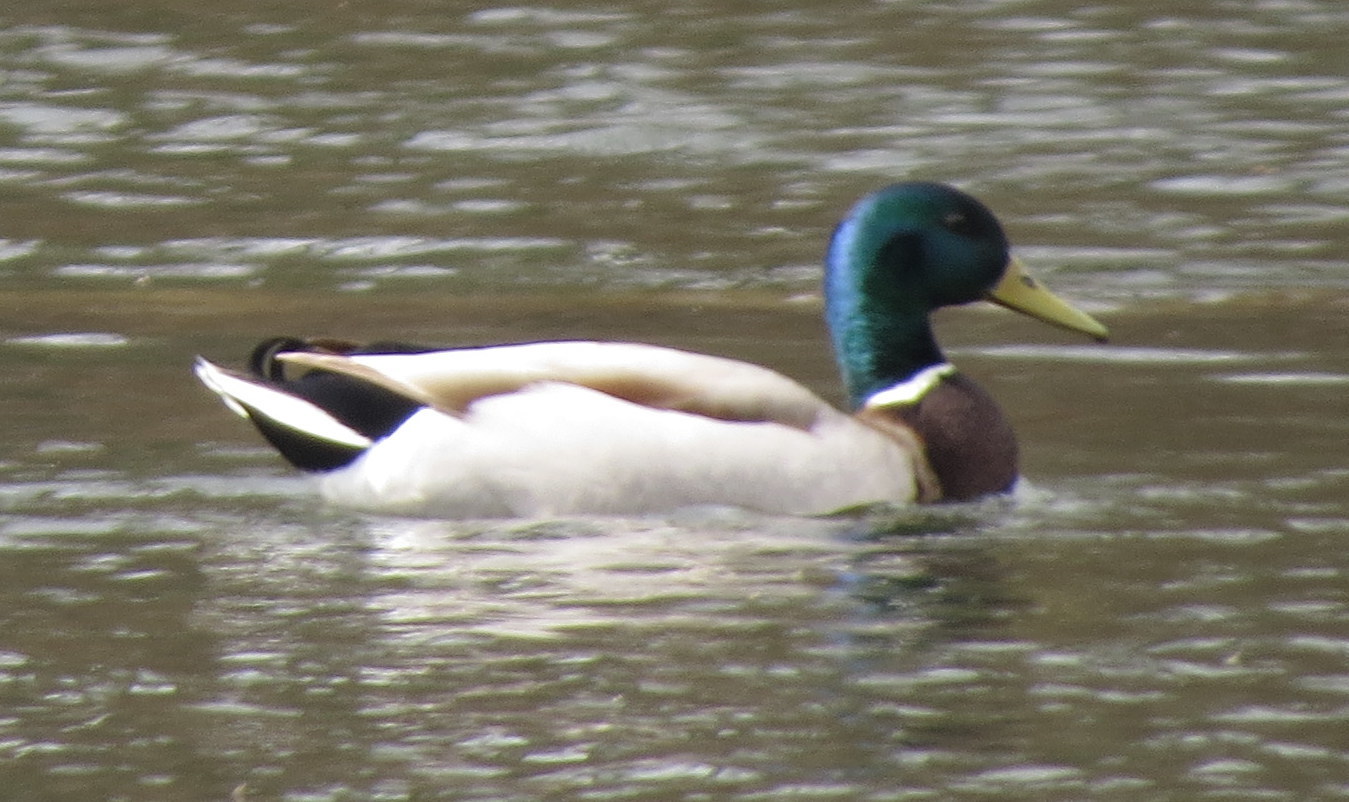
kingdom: Animalia
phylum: Chordata
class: Aves
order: Anseriformes
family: Anatidae
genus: Anas
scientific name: Anas platyrhynchos
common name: Mallard
